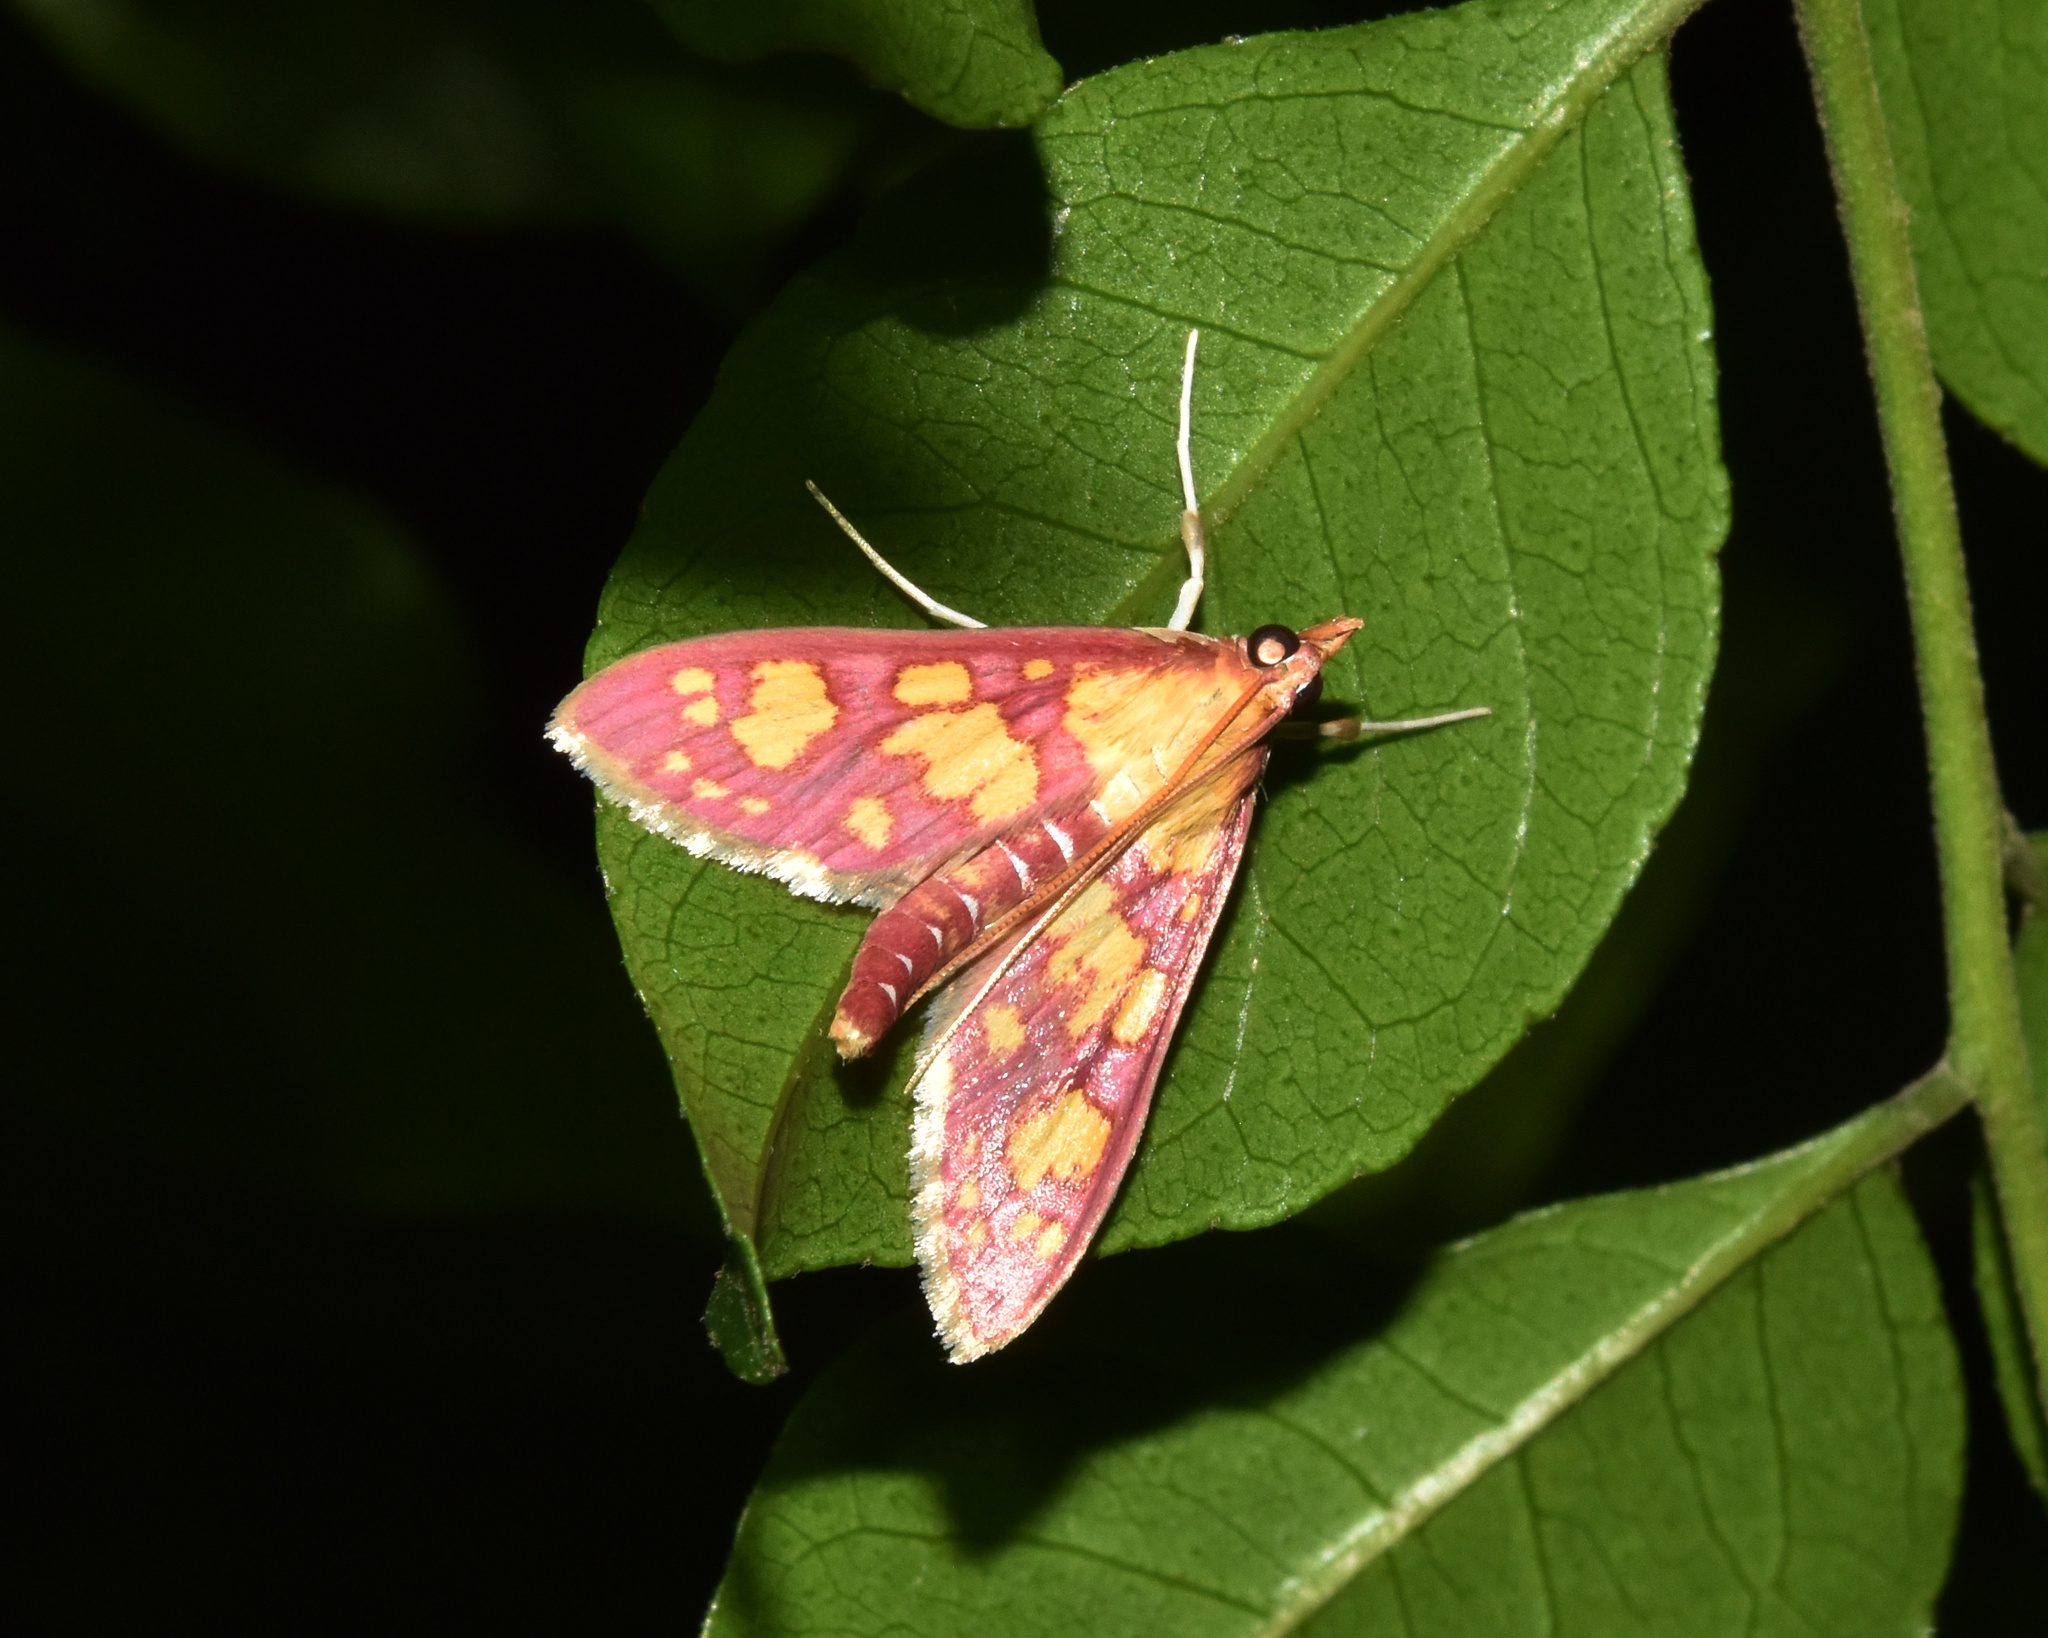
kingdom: Animalia
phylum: Arthropoda
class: Insecta
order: Lepidoptera
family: Crambidae
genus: Ischnurges
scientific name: Ischnurges Stenochora lancinalis
